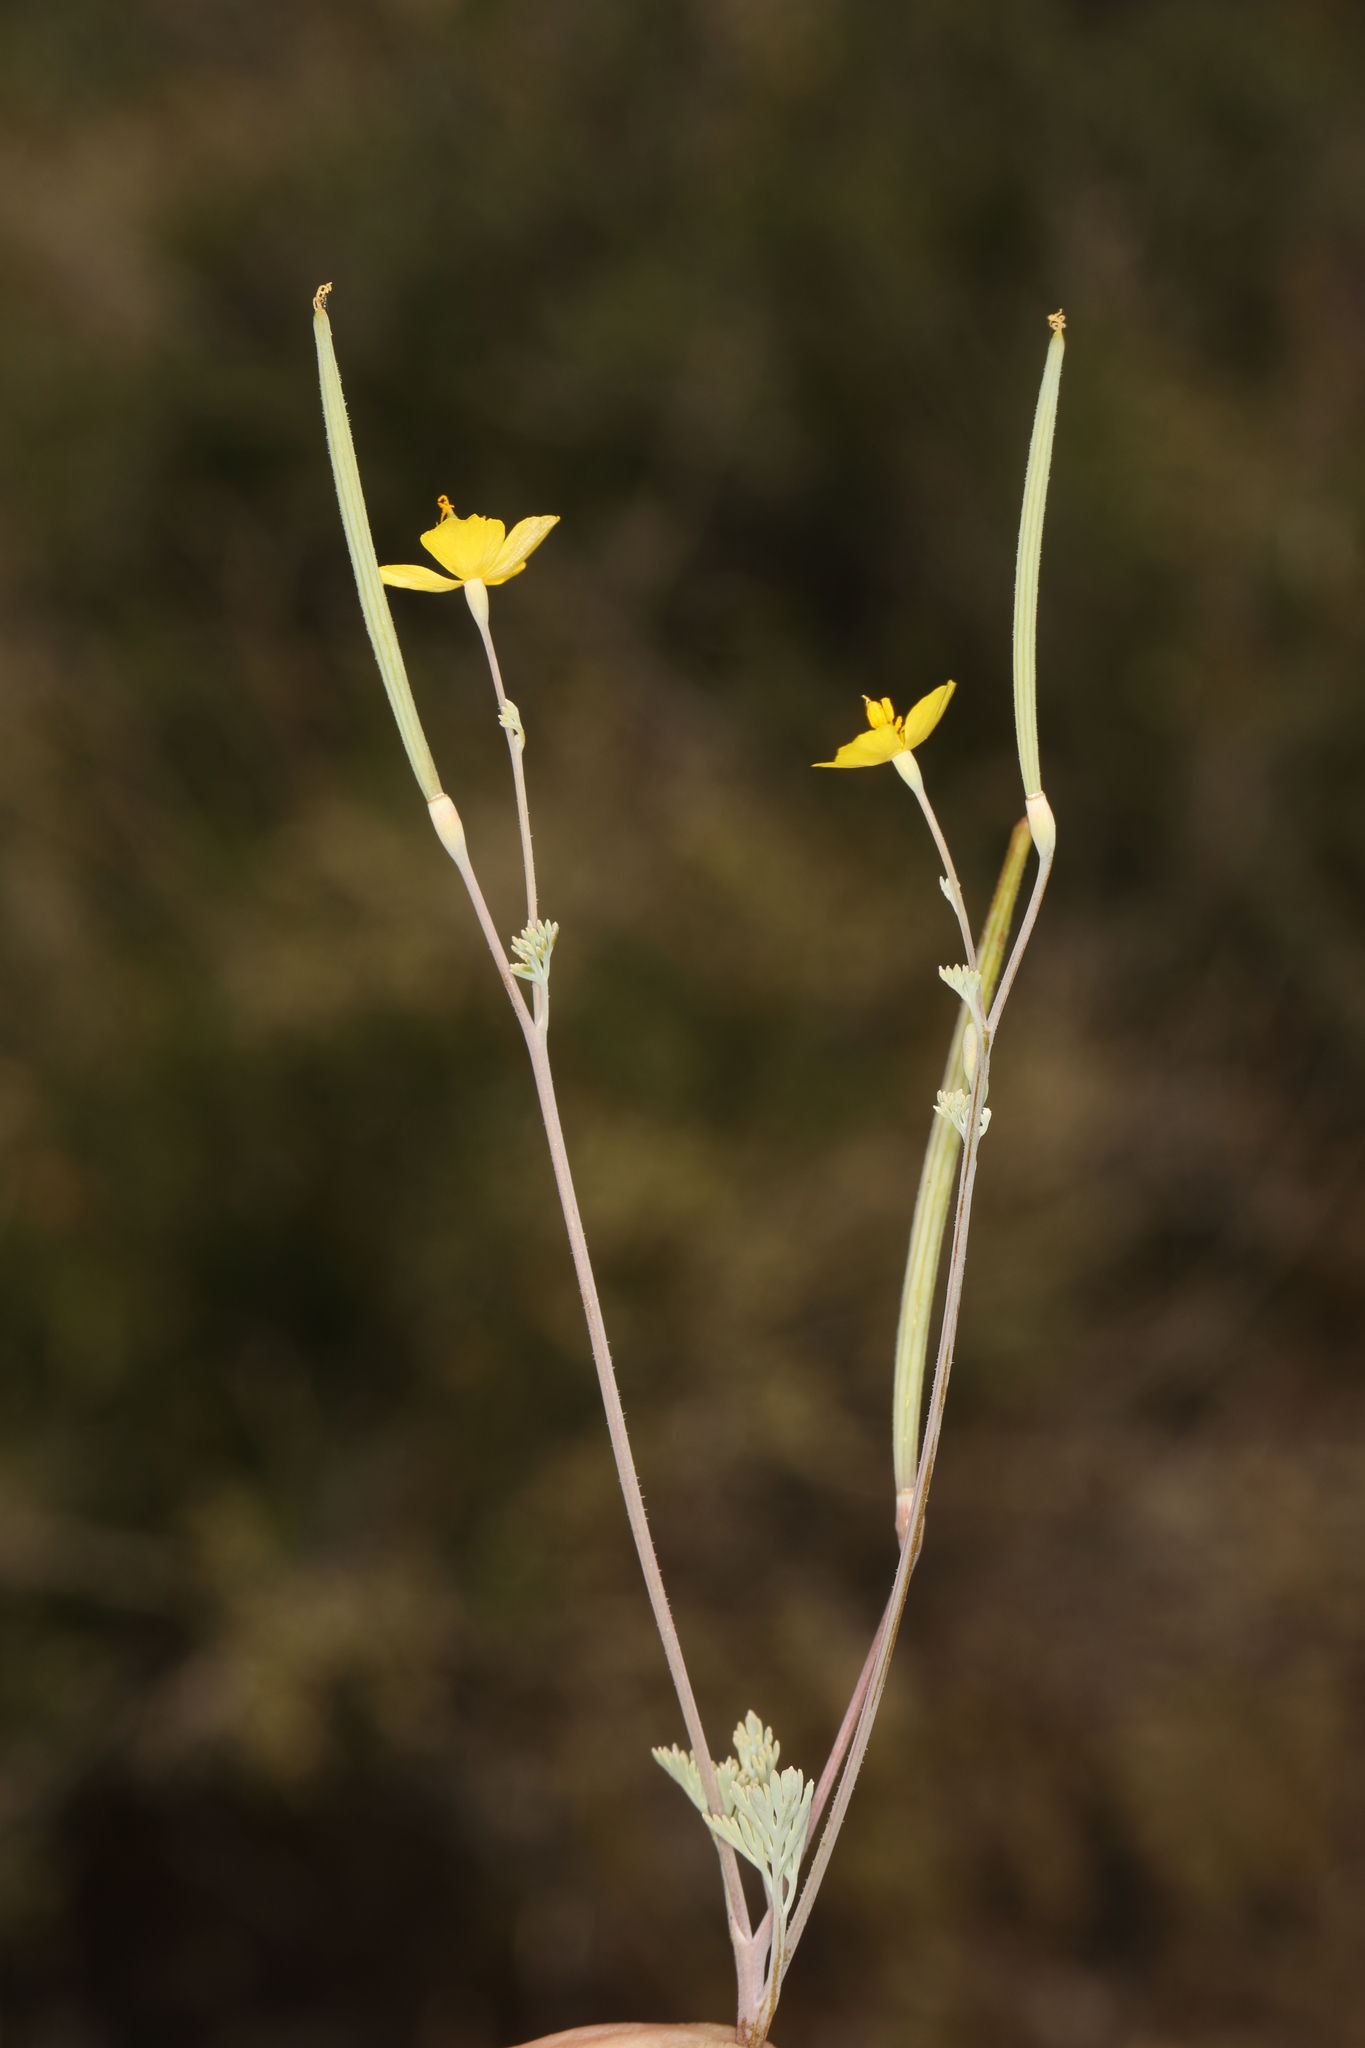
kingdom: Plantae
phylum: Tracheophyta
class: Magnoliopsida
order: Ranunculales
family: Papaveraceae
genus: Eschscholzia
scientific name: Eschscholzia minutiflora
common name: Small-flower california-poppy
